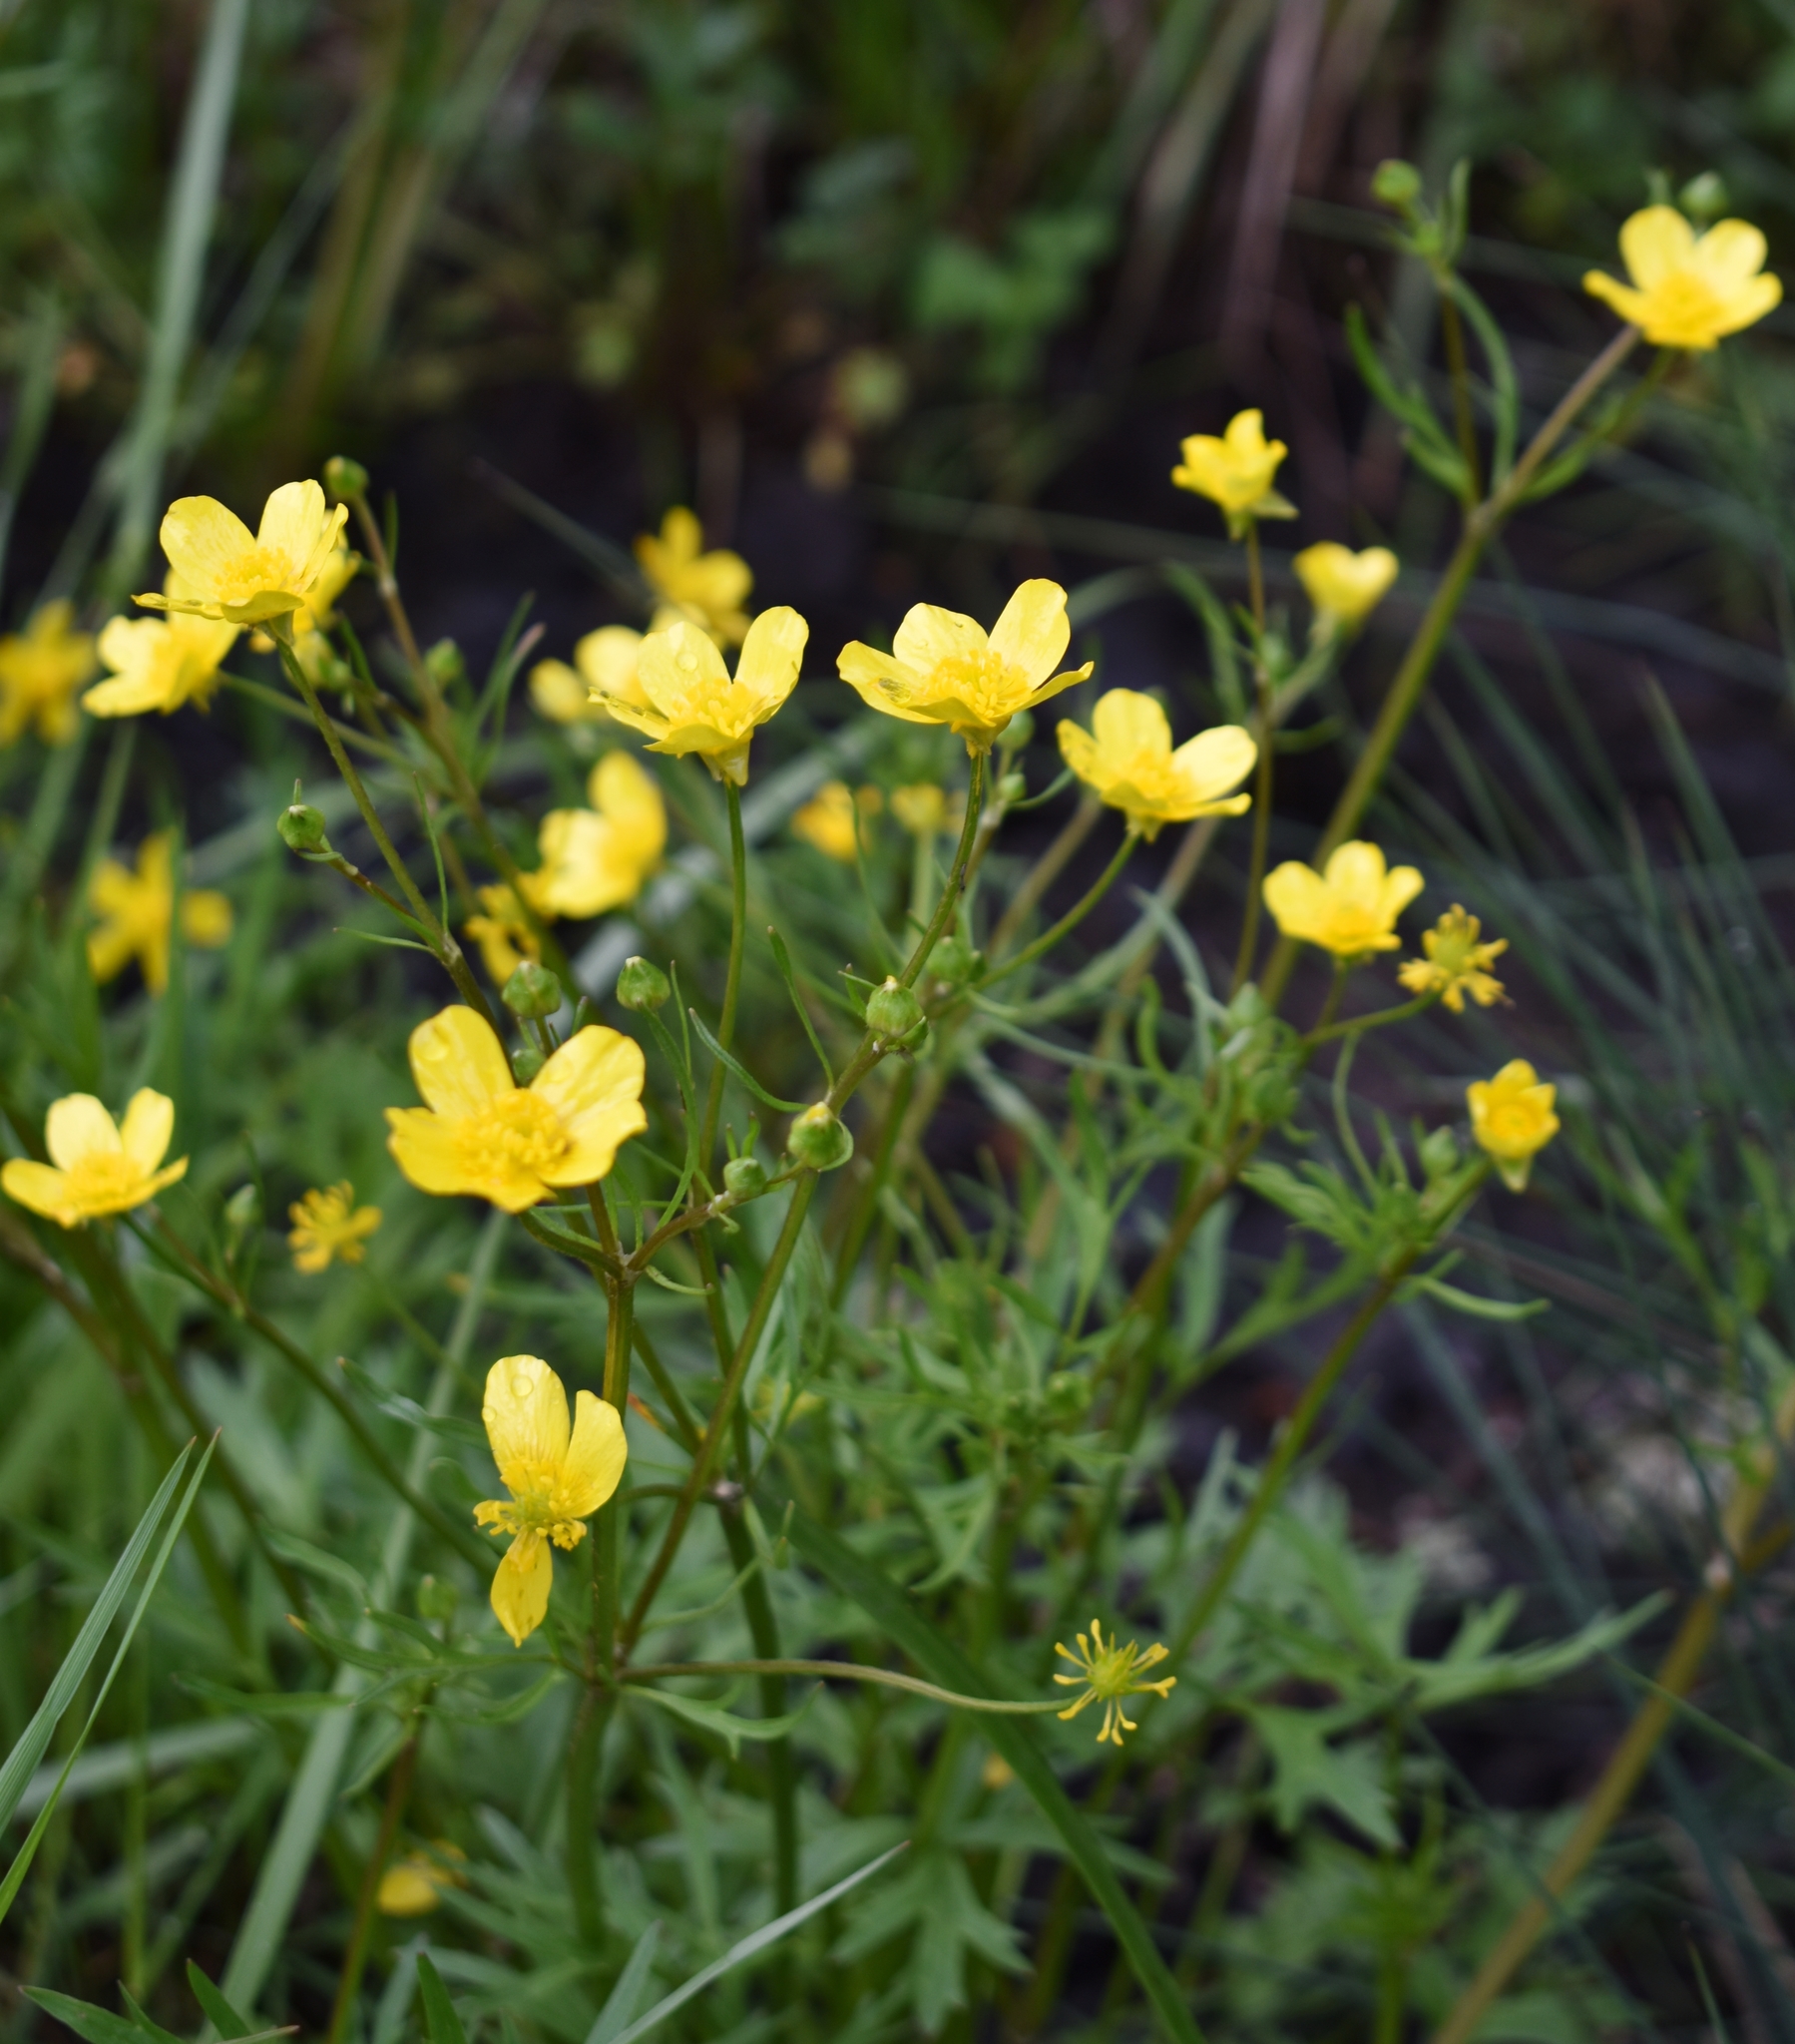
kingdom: Plantae
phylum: Tracheophyta
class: Magnoliopsida
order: Ranunculales
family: Ranunculaceae
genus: Ranunculus
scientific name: Ranunculus orthorhynchus
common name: Straight-beak buttercup
